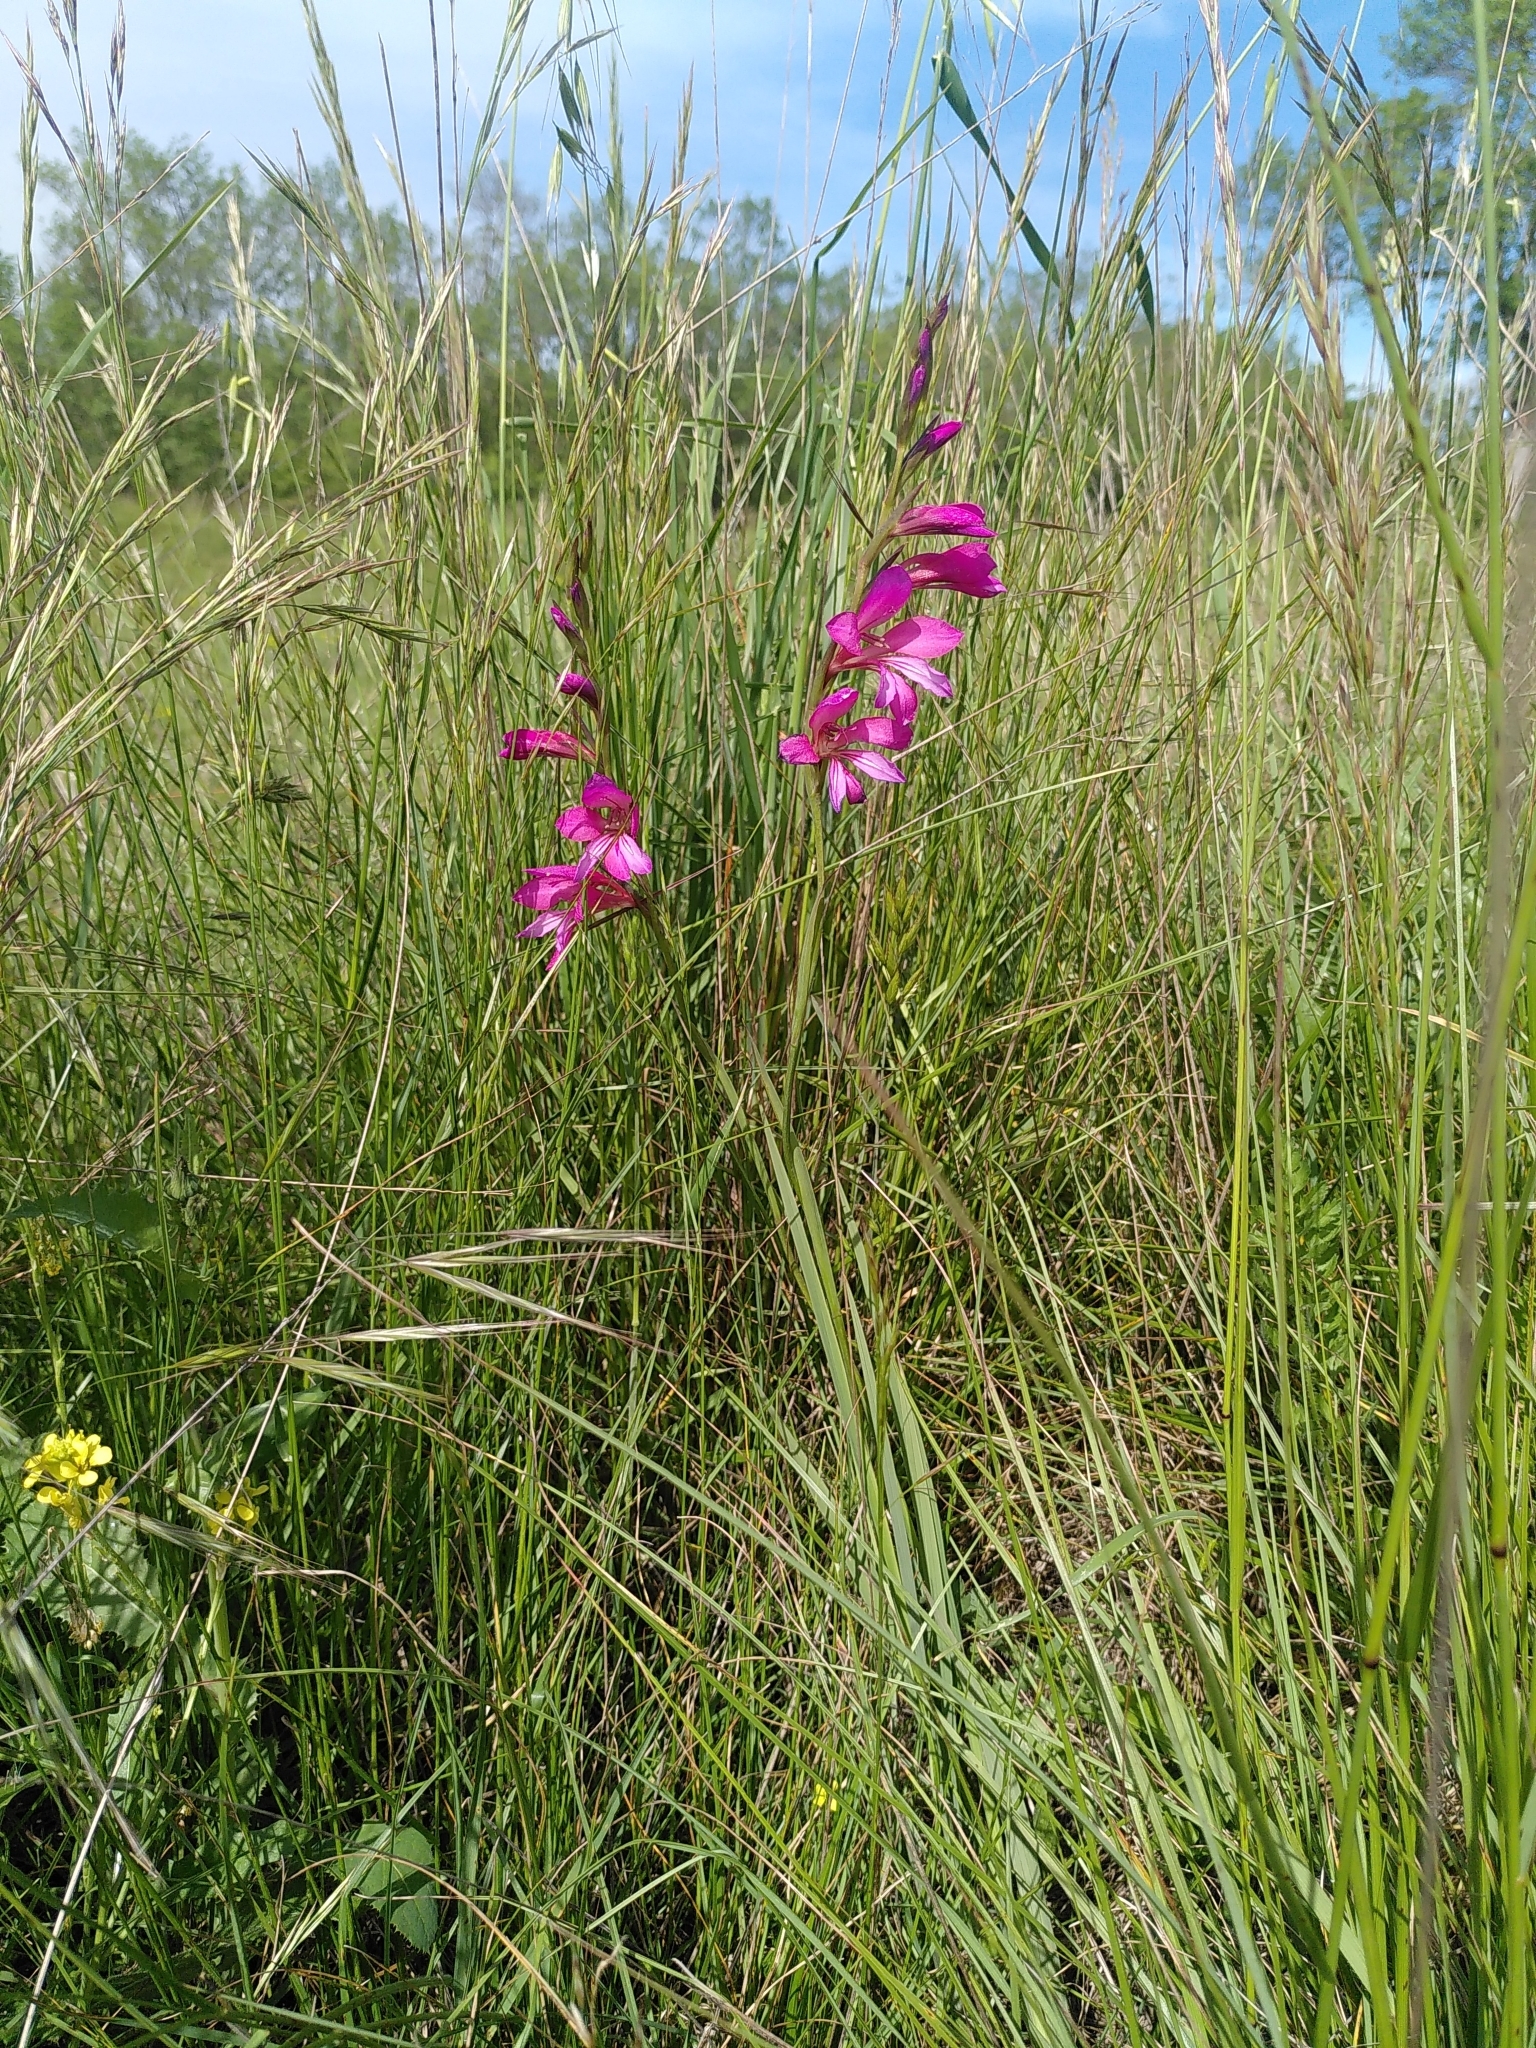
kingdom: Plantae
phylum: Tracheophyta
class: Liliopsida
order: Asparagales
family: Iridaceae
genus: Gladiolus
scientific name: Gladiolus dubius
